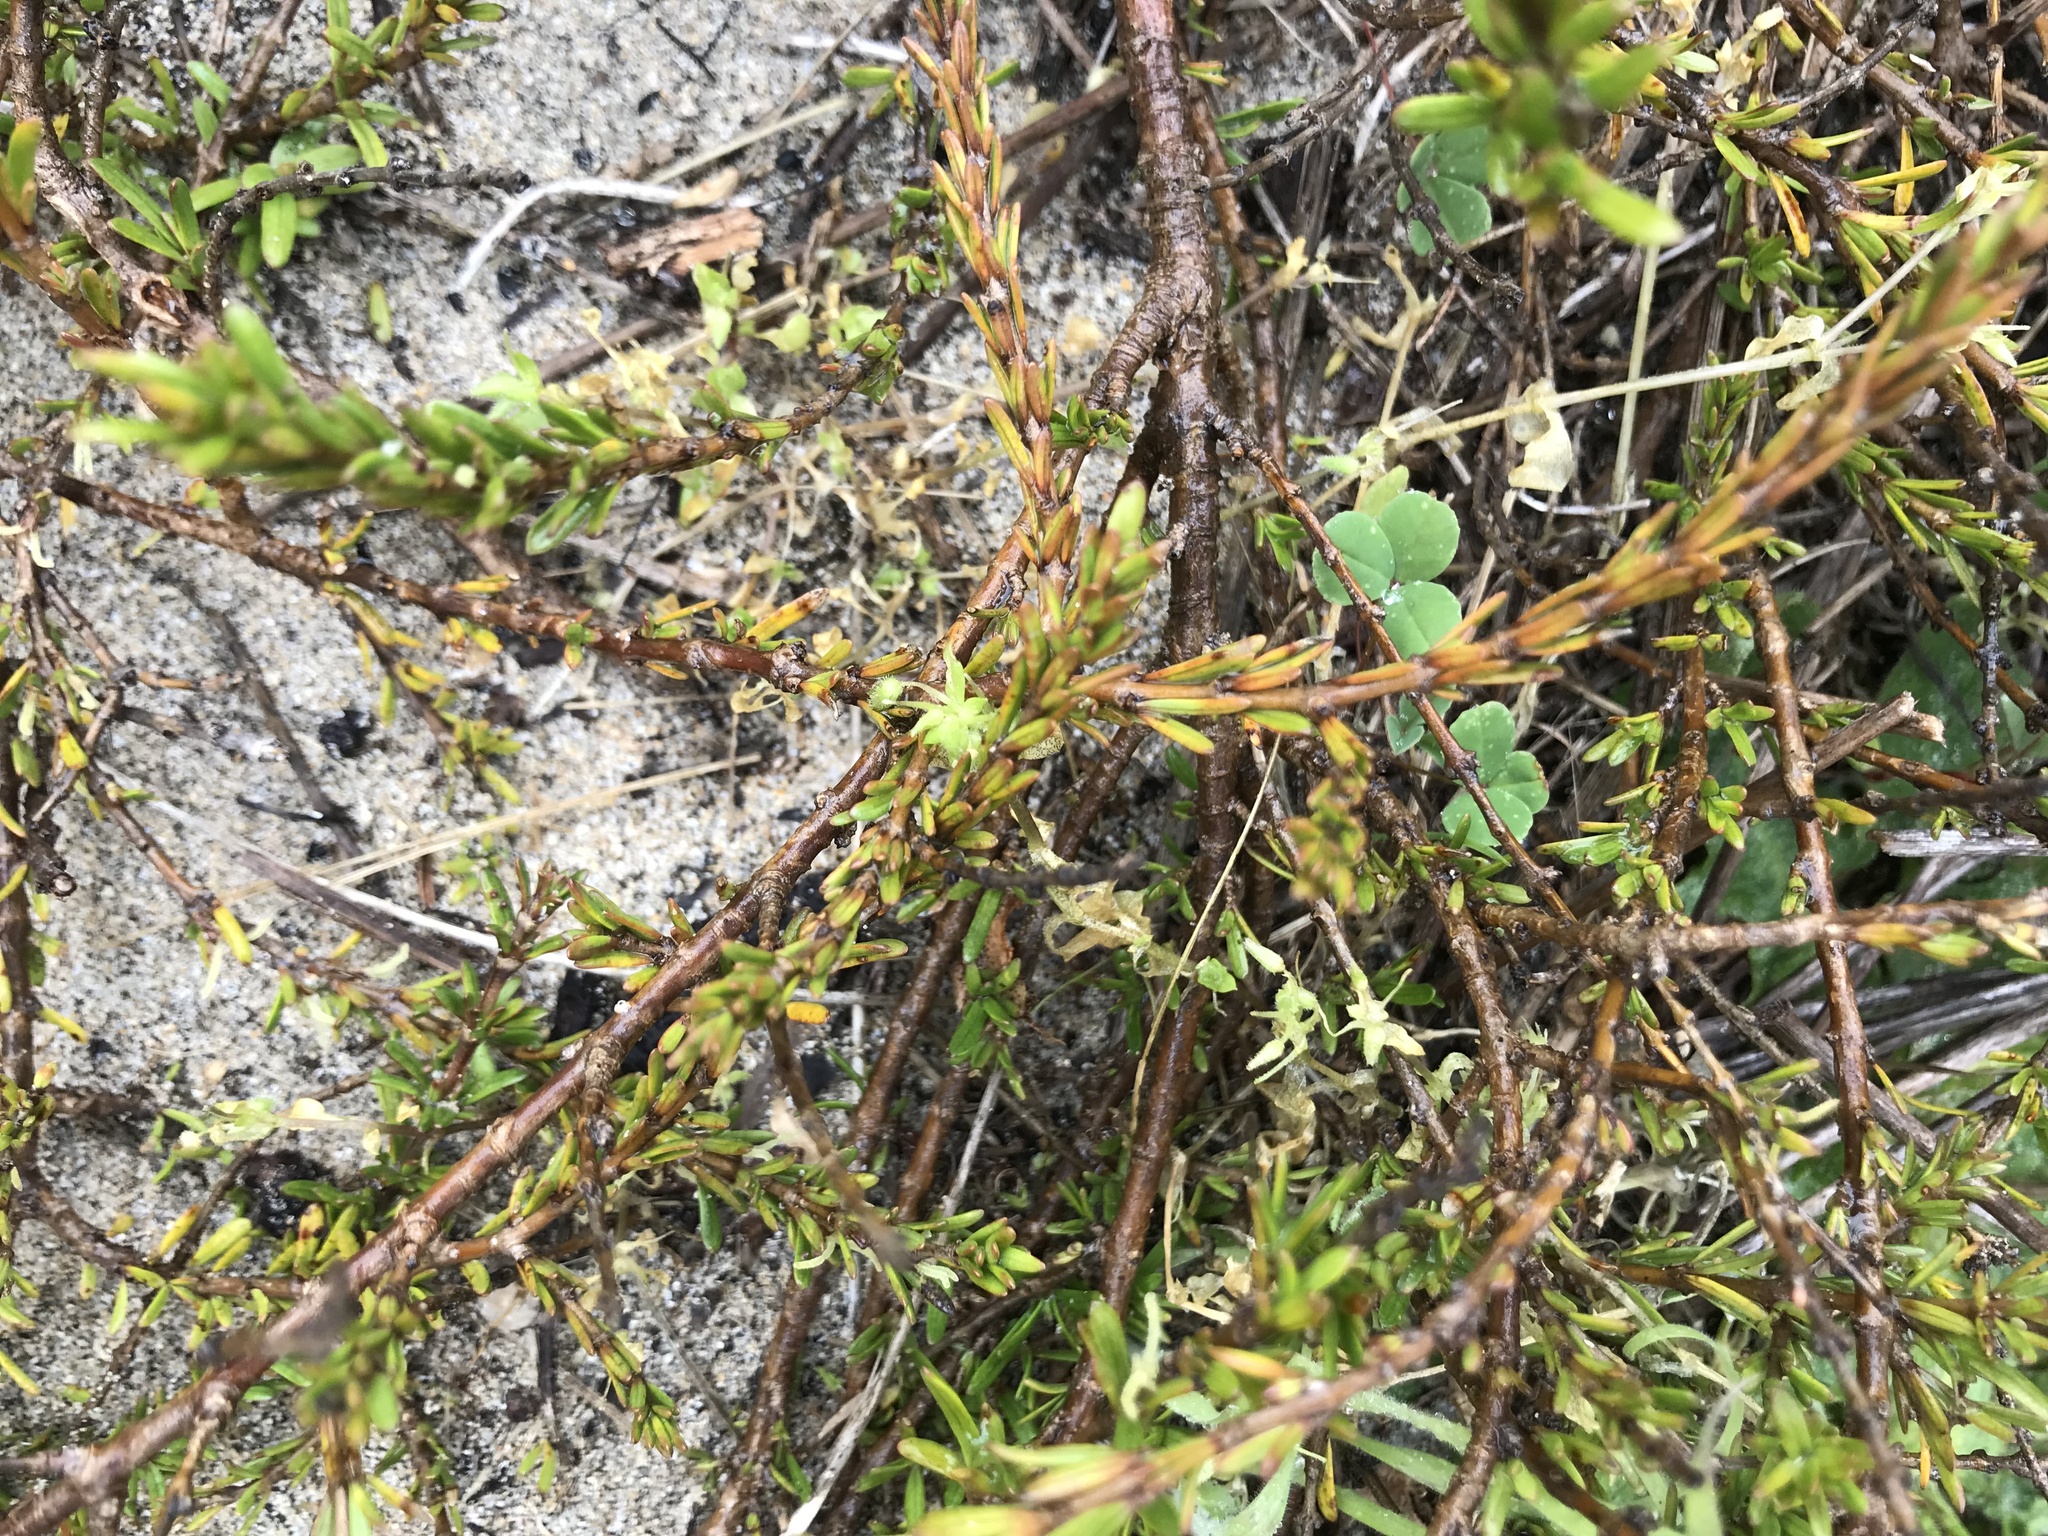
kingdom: Plantae
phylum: Tracheophyta
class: Magnoliopsida
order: Gentianales
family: Rubiaceae
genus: Coprosma
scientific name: Coprosma acerosa
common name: Sand coprosma
